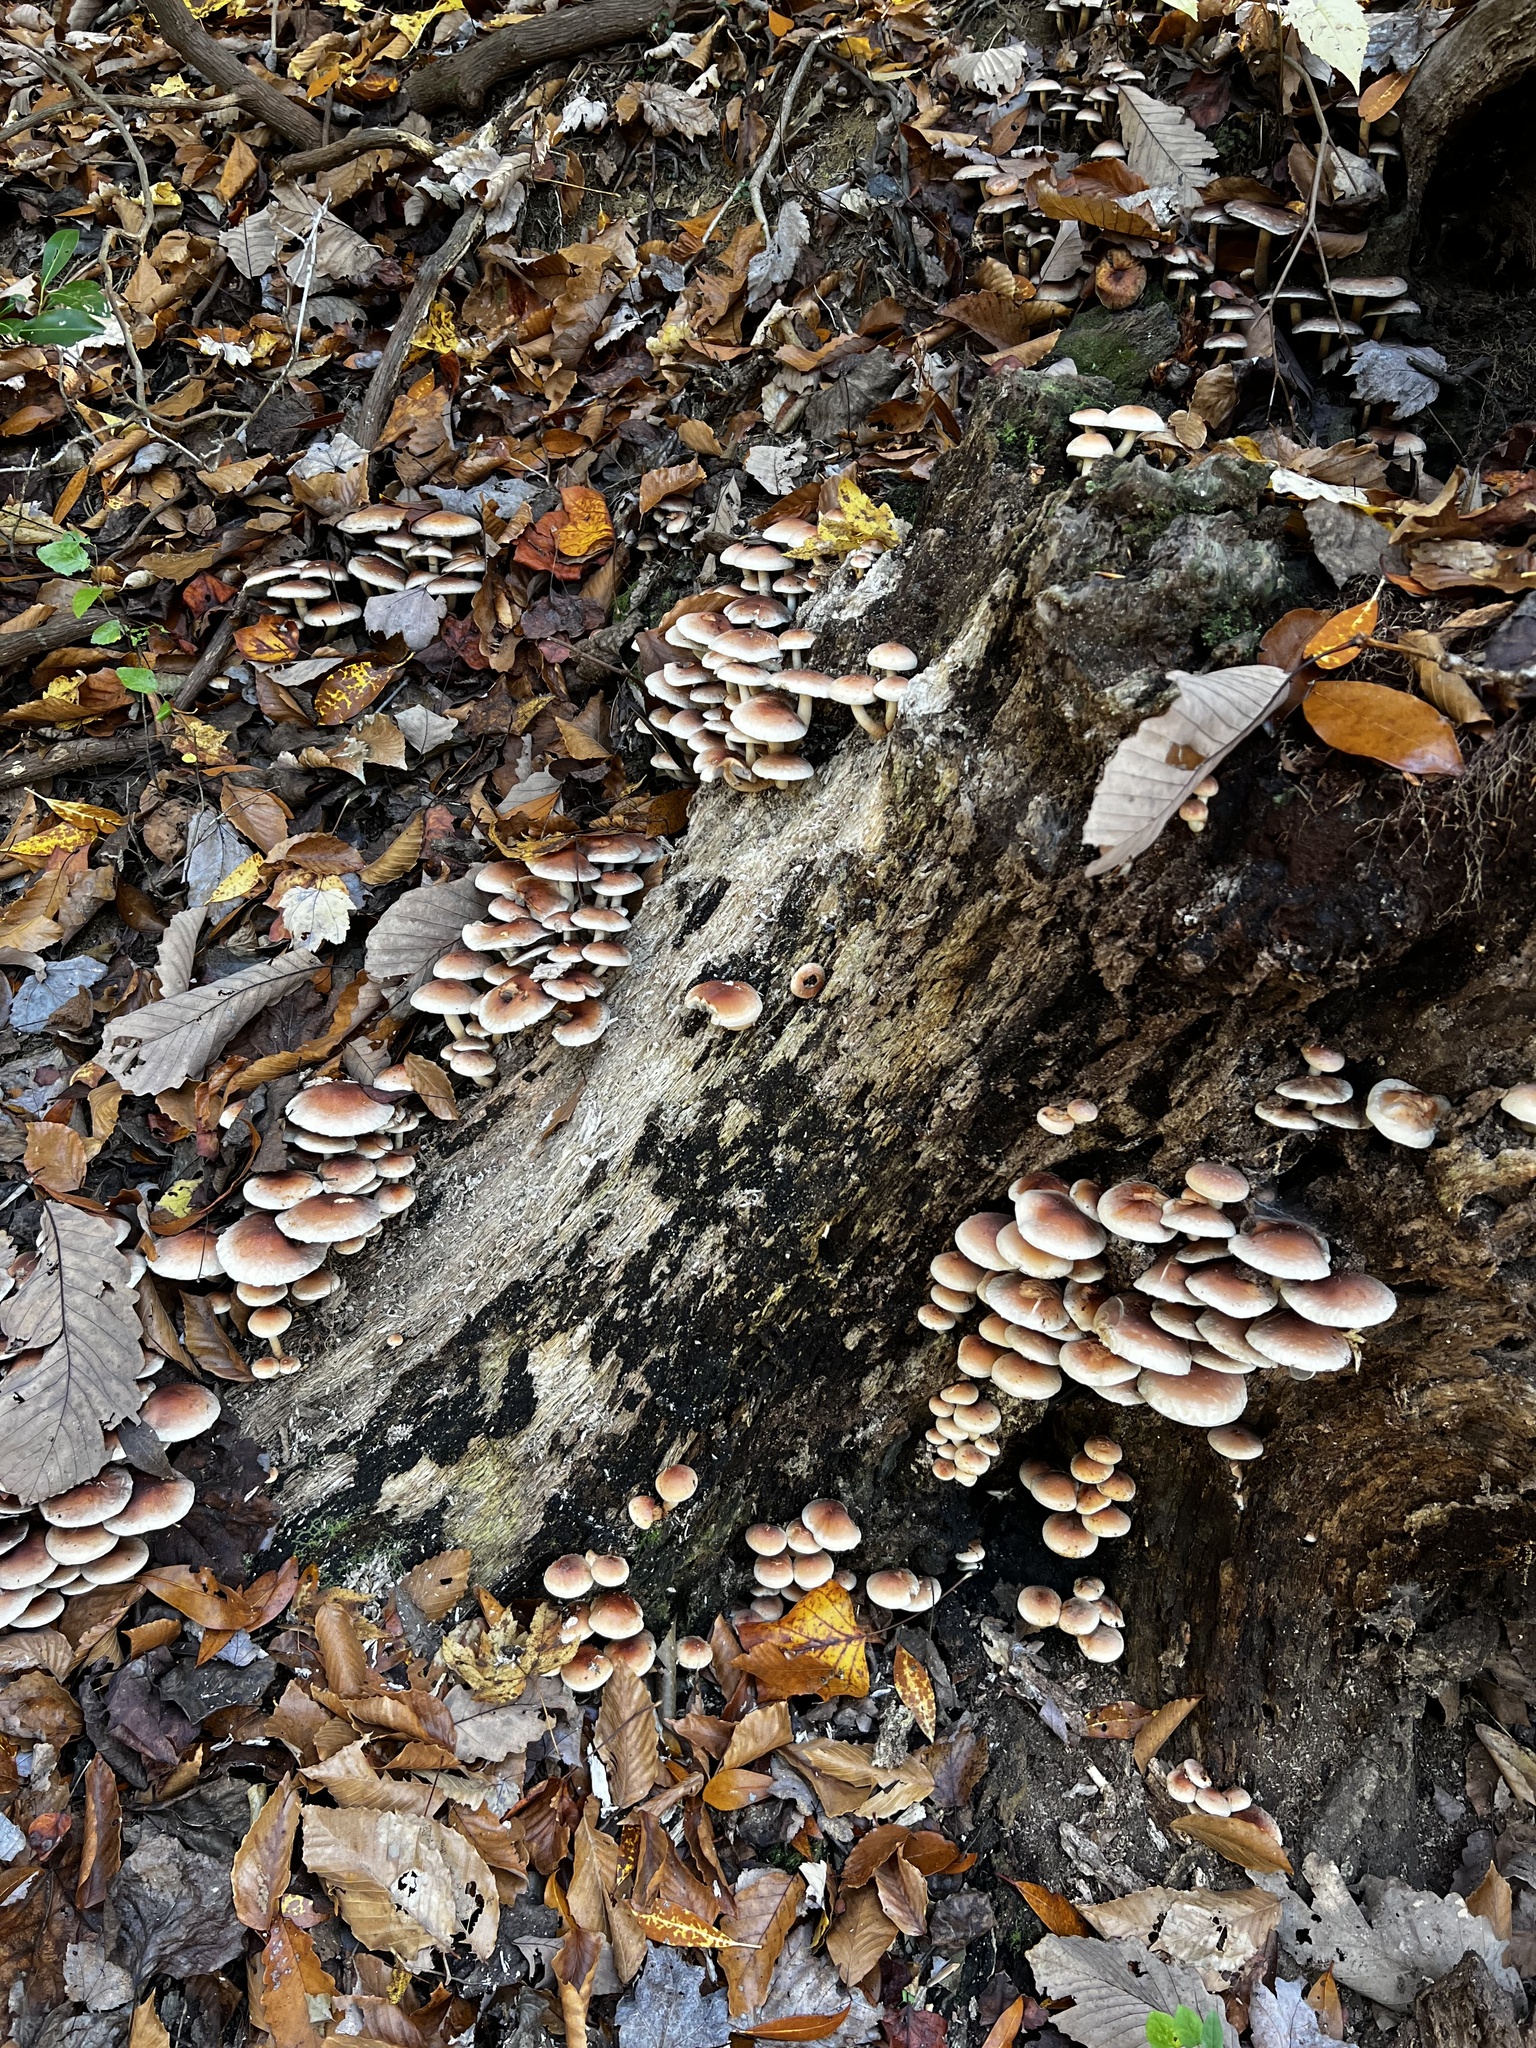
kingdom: Fungi
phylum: Basidiomycota
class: Agaricomycetes
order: Agaricales
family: Strophariaceae
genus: Hypholoma
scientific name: Hypholoma lateritium
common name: Brick caps
